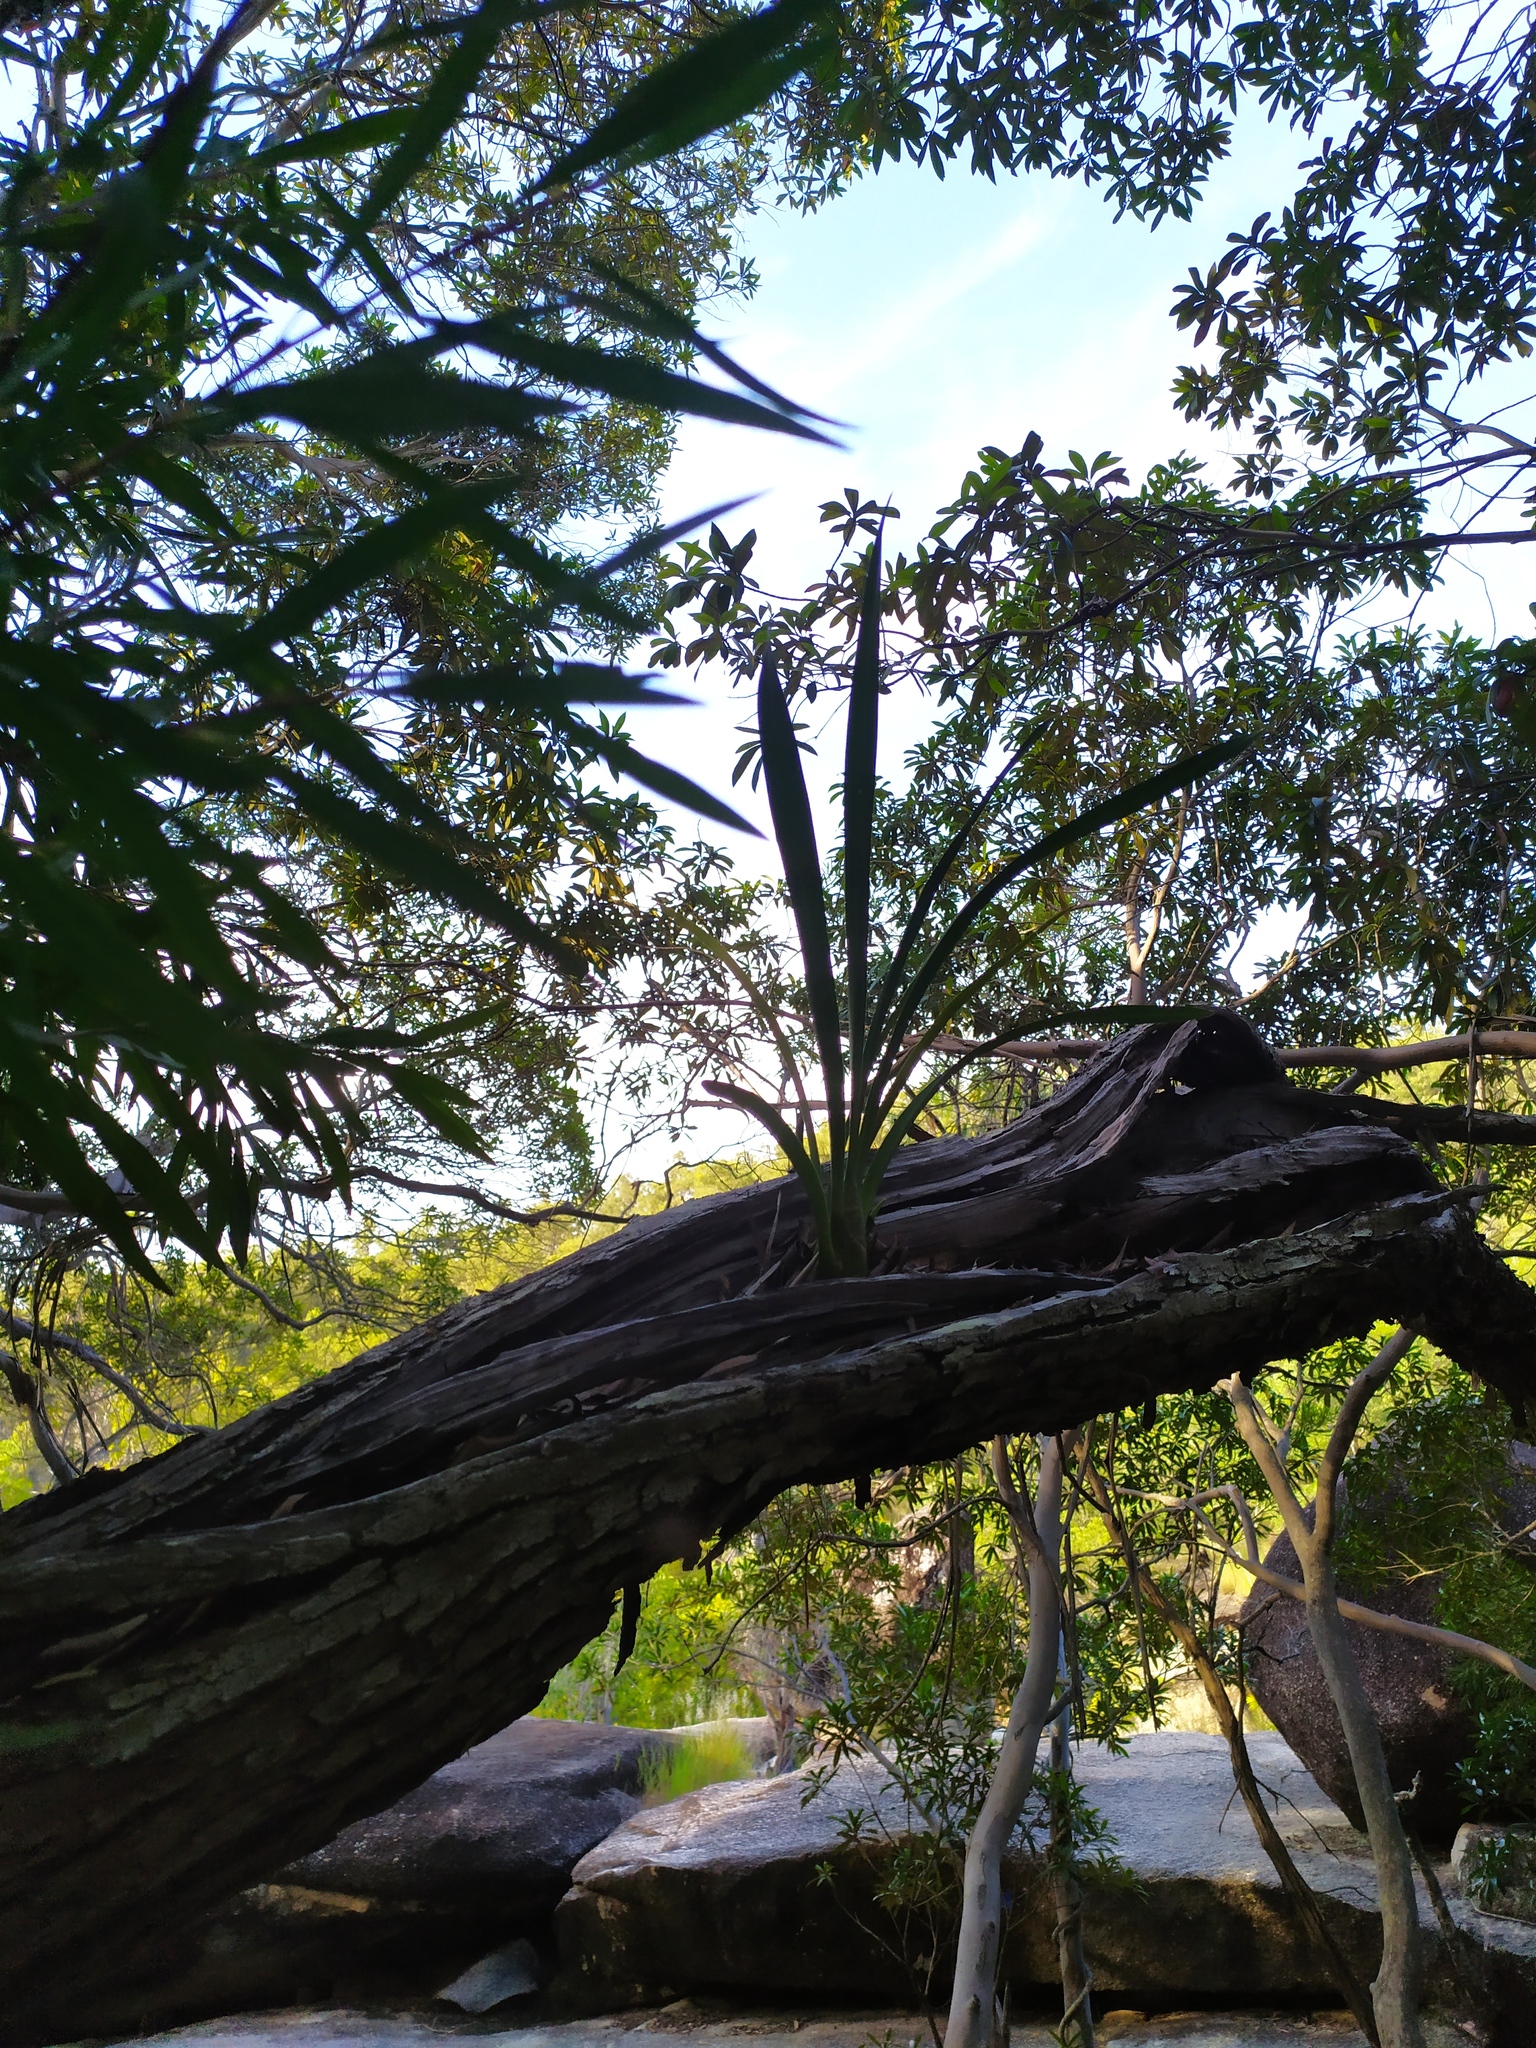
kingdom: Plantae
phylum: Tracheophyta
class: Liliopsida
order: Asparagales
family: Orchidaceae
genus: Cymbidium
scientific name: Cymbidium madidum
